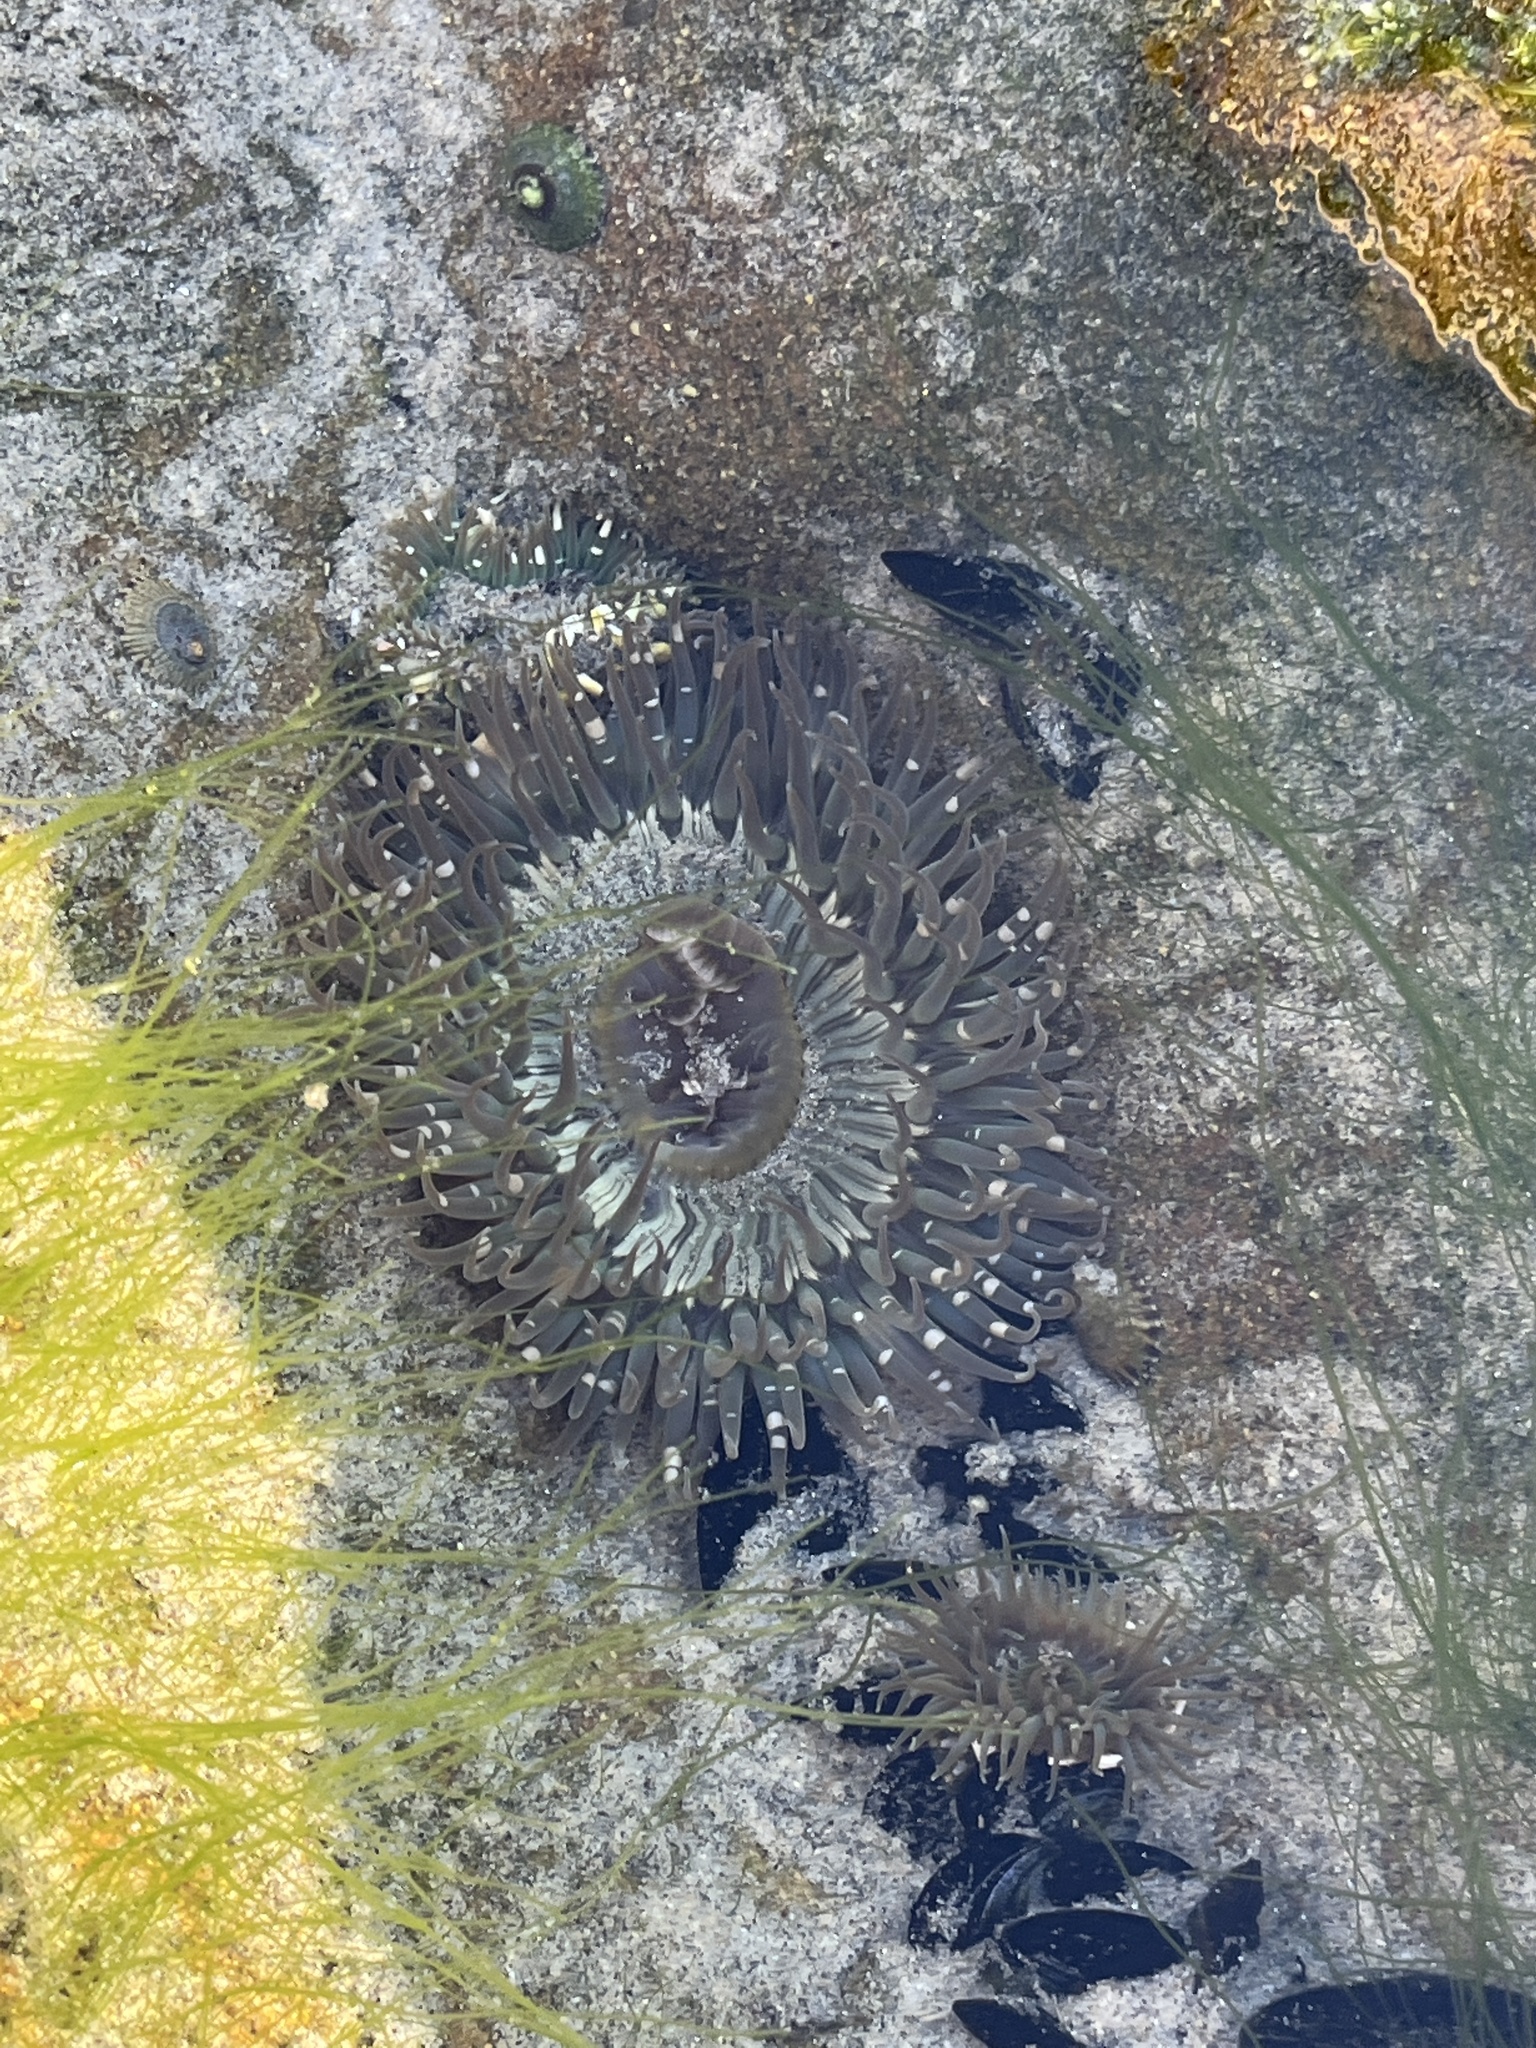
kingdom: Animalia
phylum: Cnidaria
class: Anthozoa
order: Actiniaria
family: Actiniidae
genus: Anthopleura
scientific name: Anthopleura sola
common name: Sun anemone
